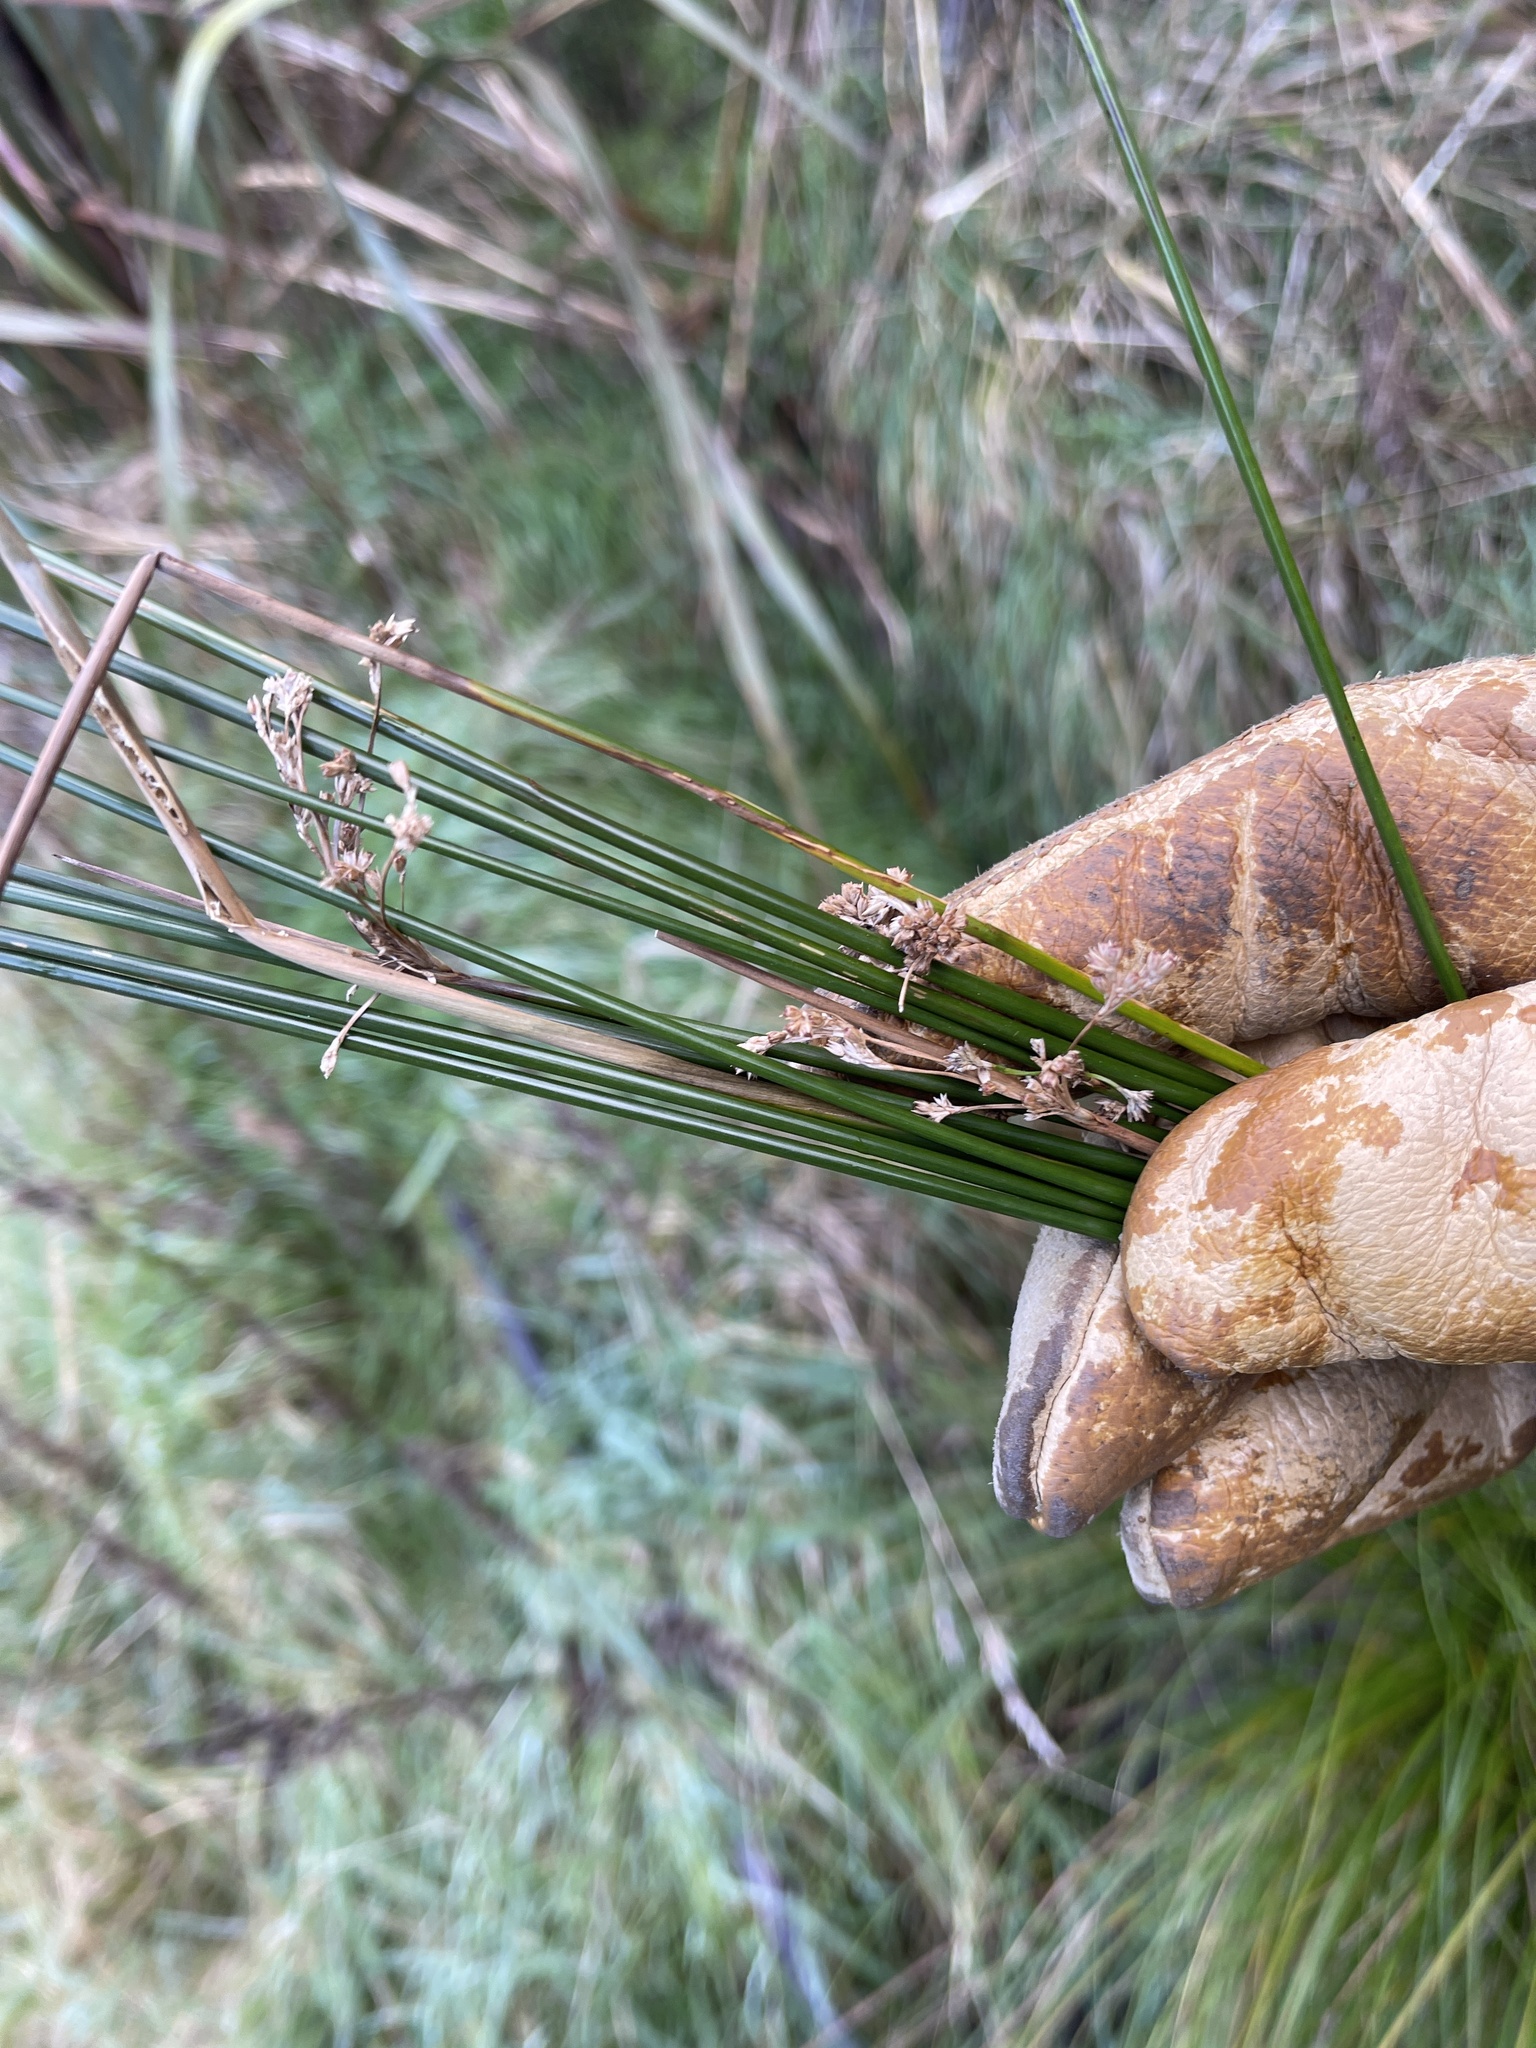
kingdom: Plantae
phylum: Tracheophyta
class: Liliopsida
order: Poales
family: Juncaceae
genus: Juncus
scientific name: Juncus edgariae
